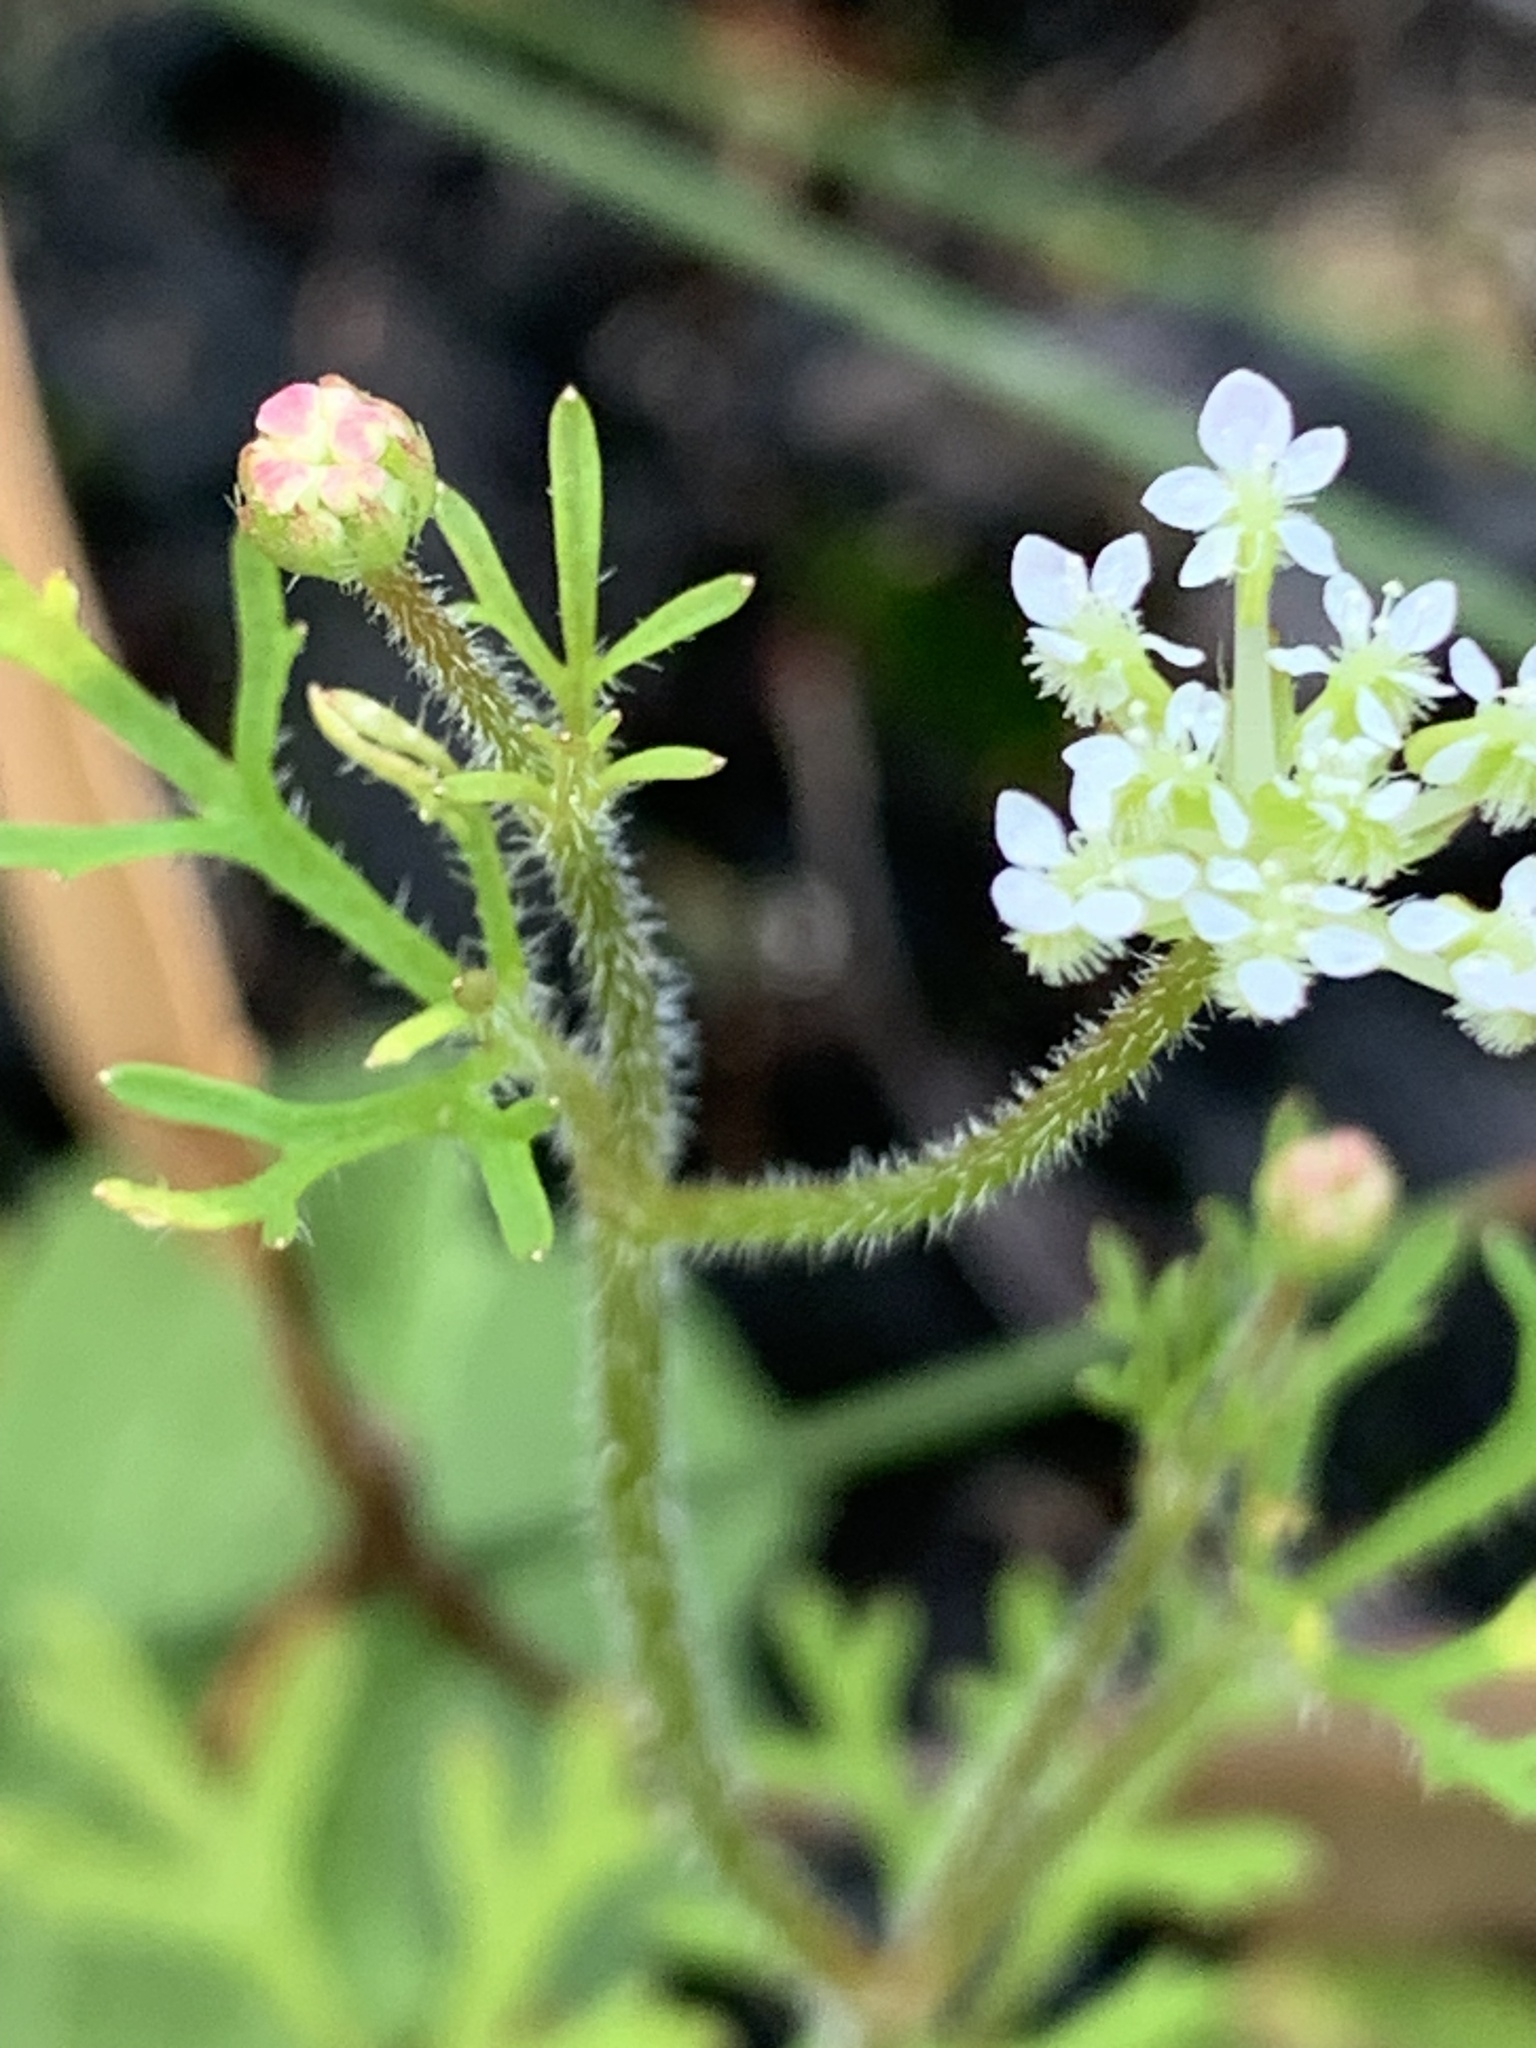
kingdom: Plantae
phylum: Tracheophyta
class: Magnoliopsida
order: Apiales
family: Araliaceae
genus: Trachymene
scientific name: Trachymene pilosa
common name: Dwarf trachymene
